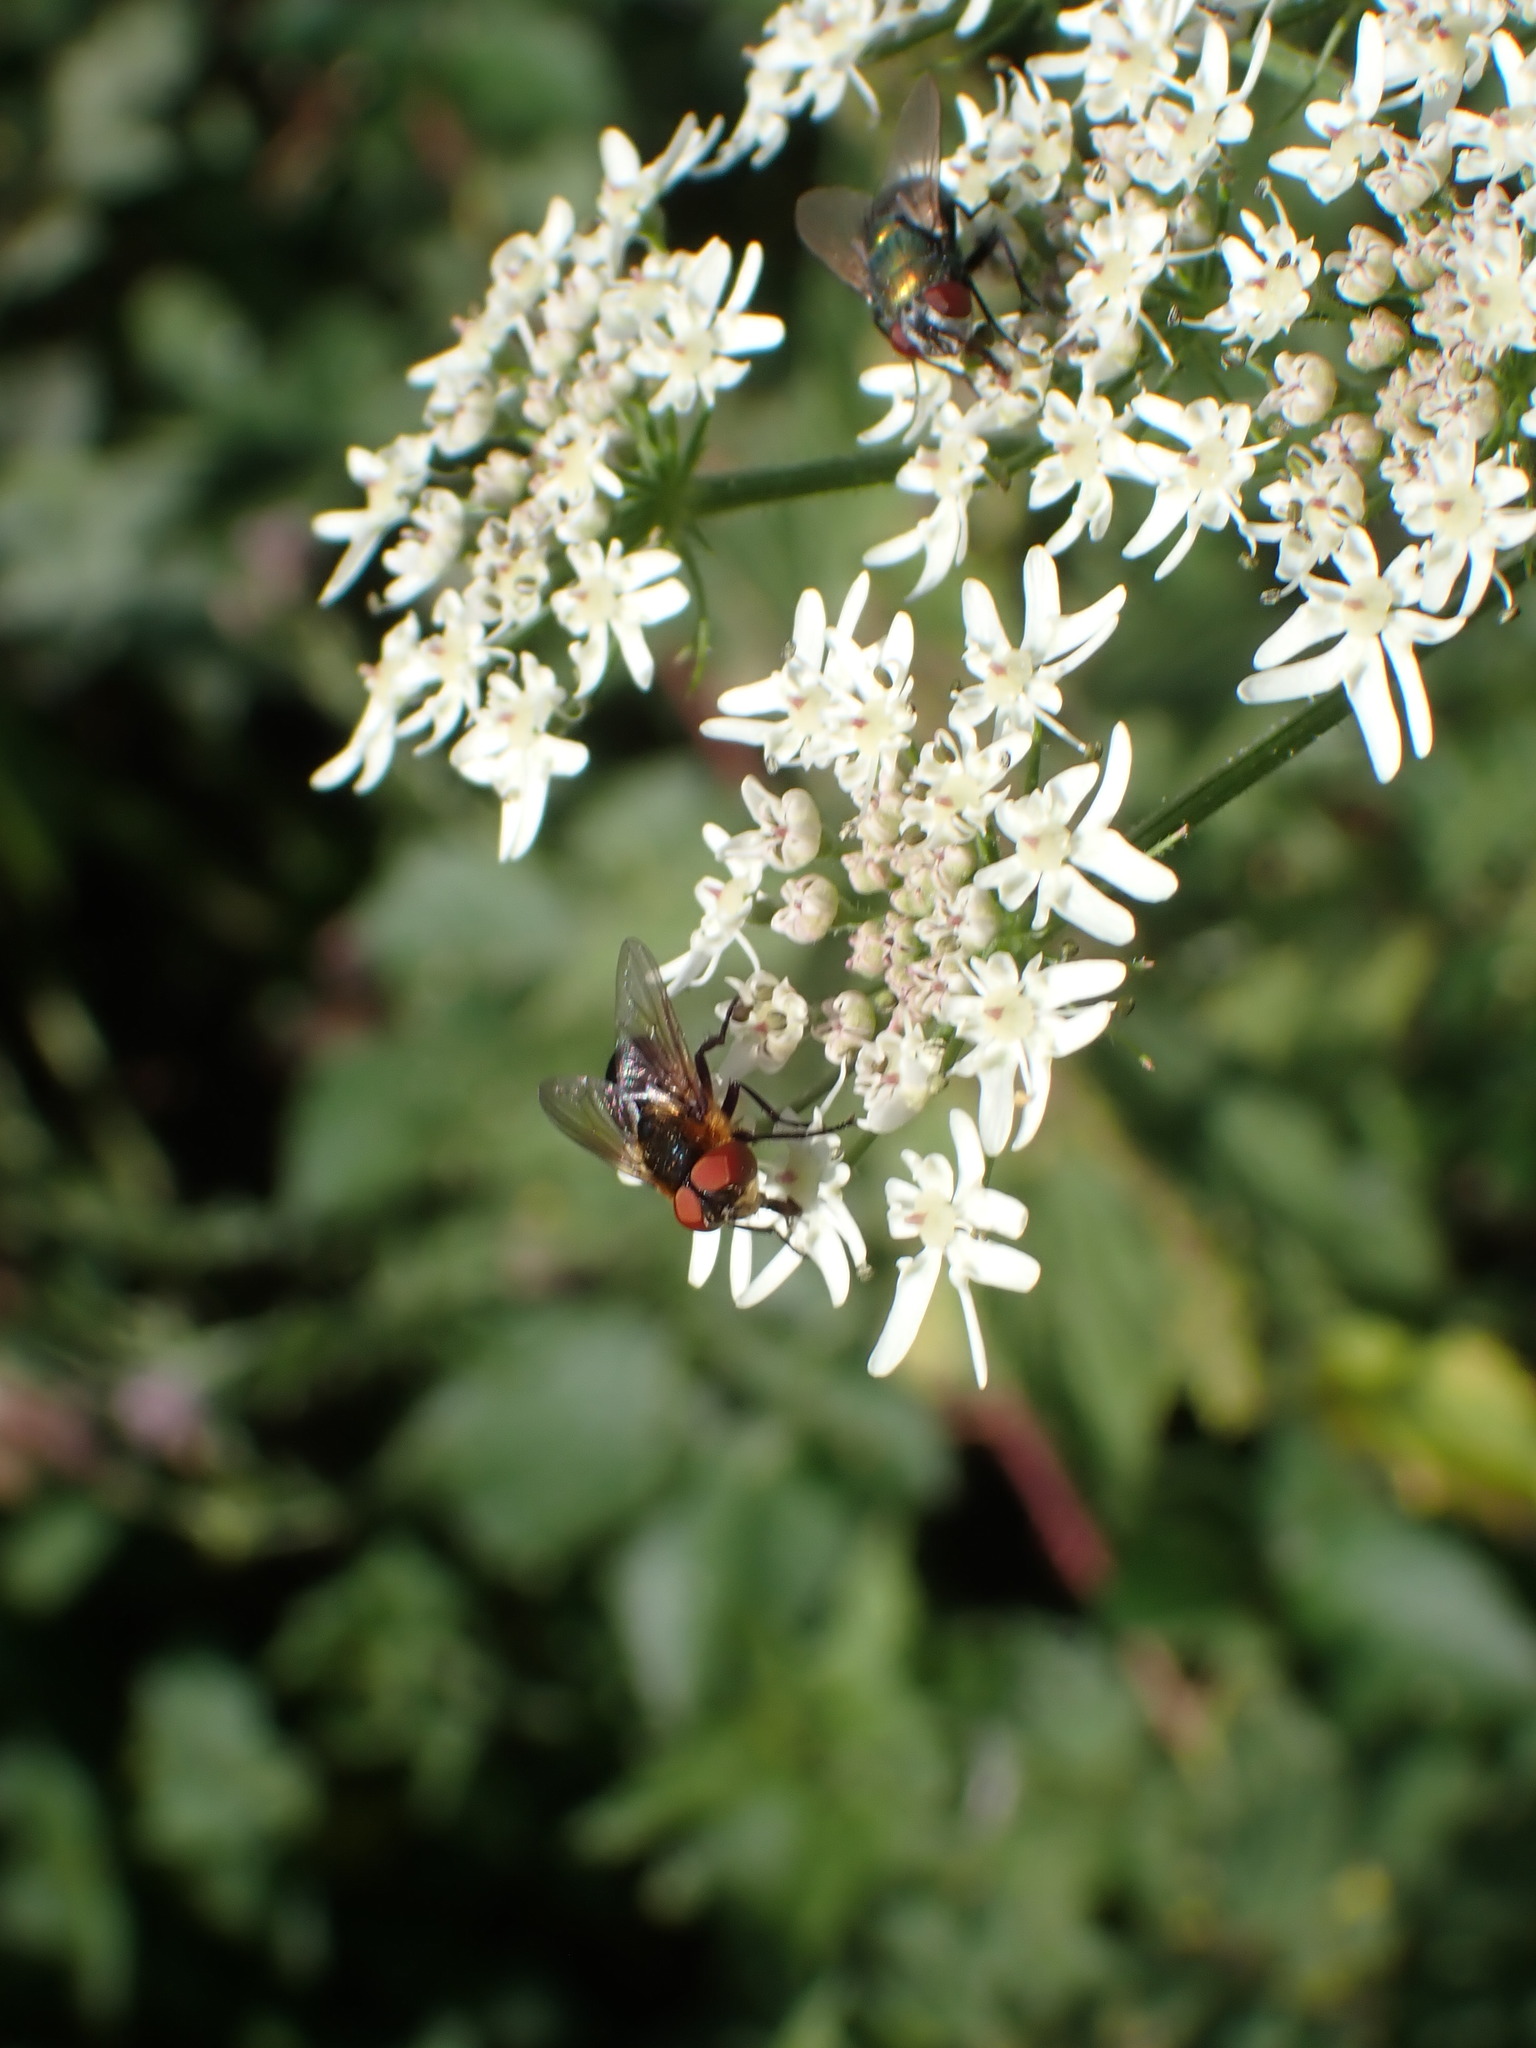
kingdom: Animalia
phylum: Arthropoda
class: Insecta
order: Diptera
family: Tachinidae
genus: Phasia
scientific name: Phasia hemiptera
